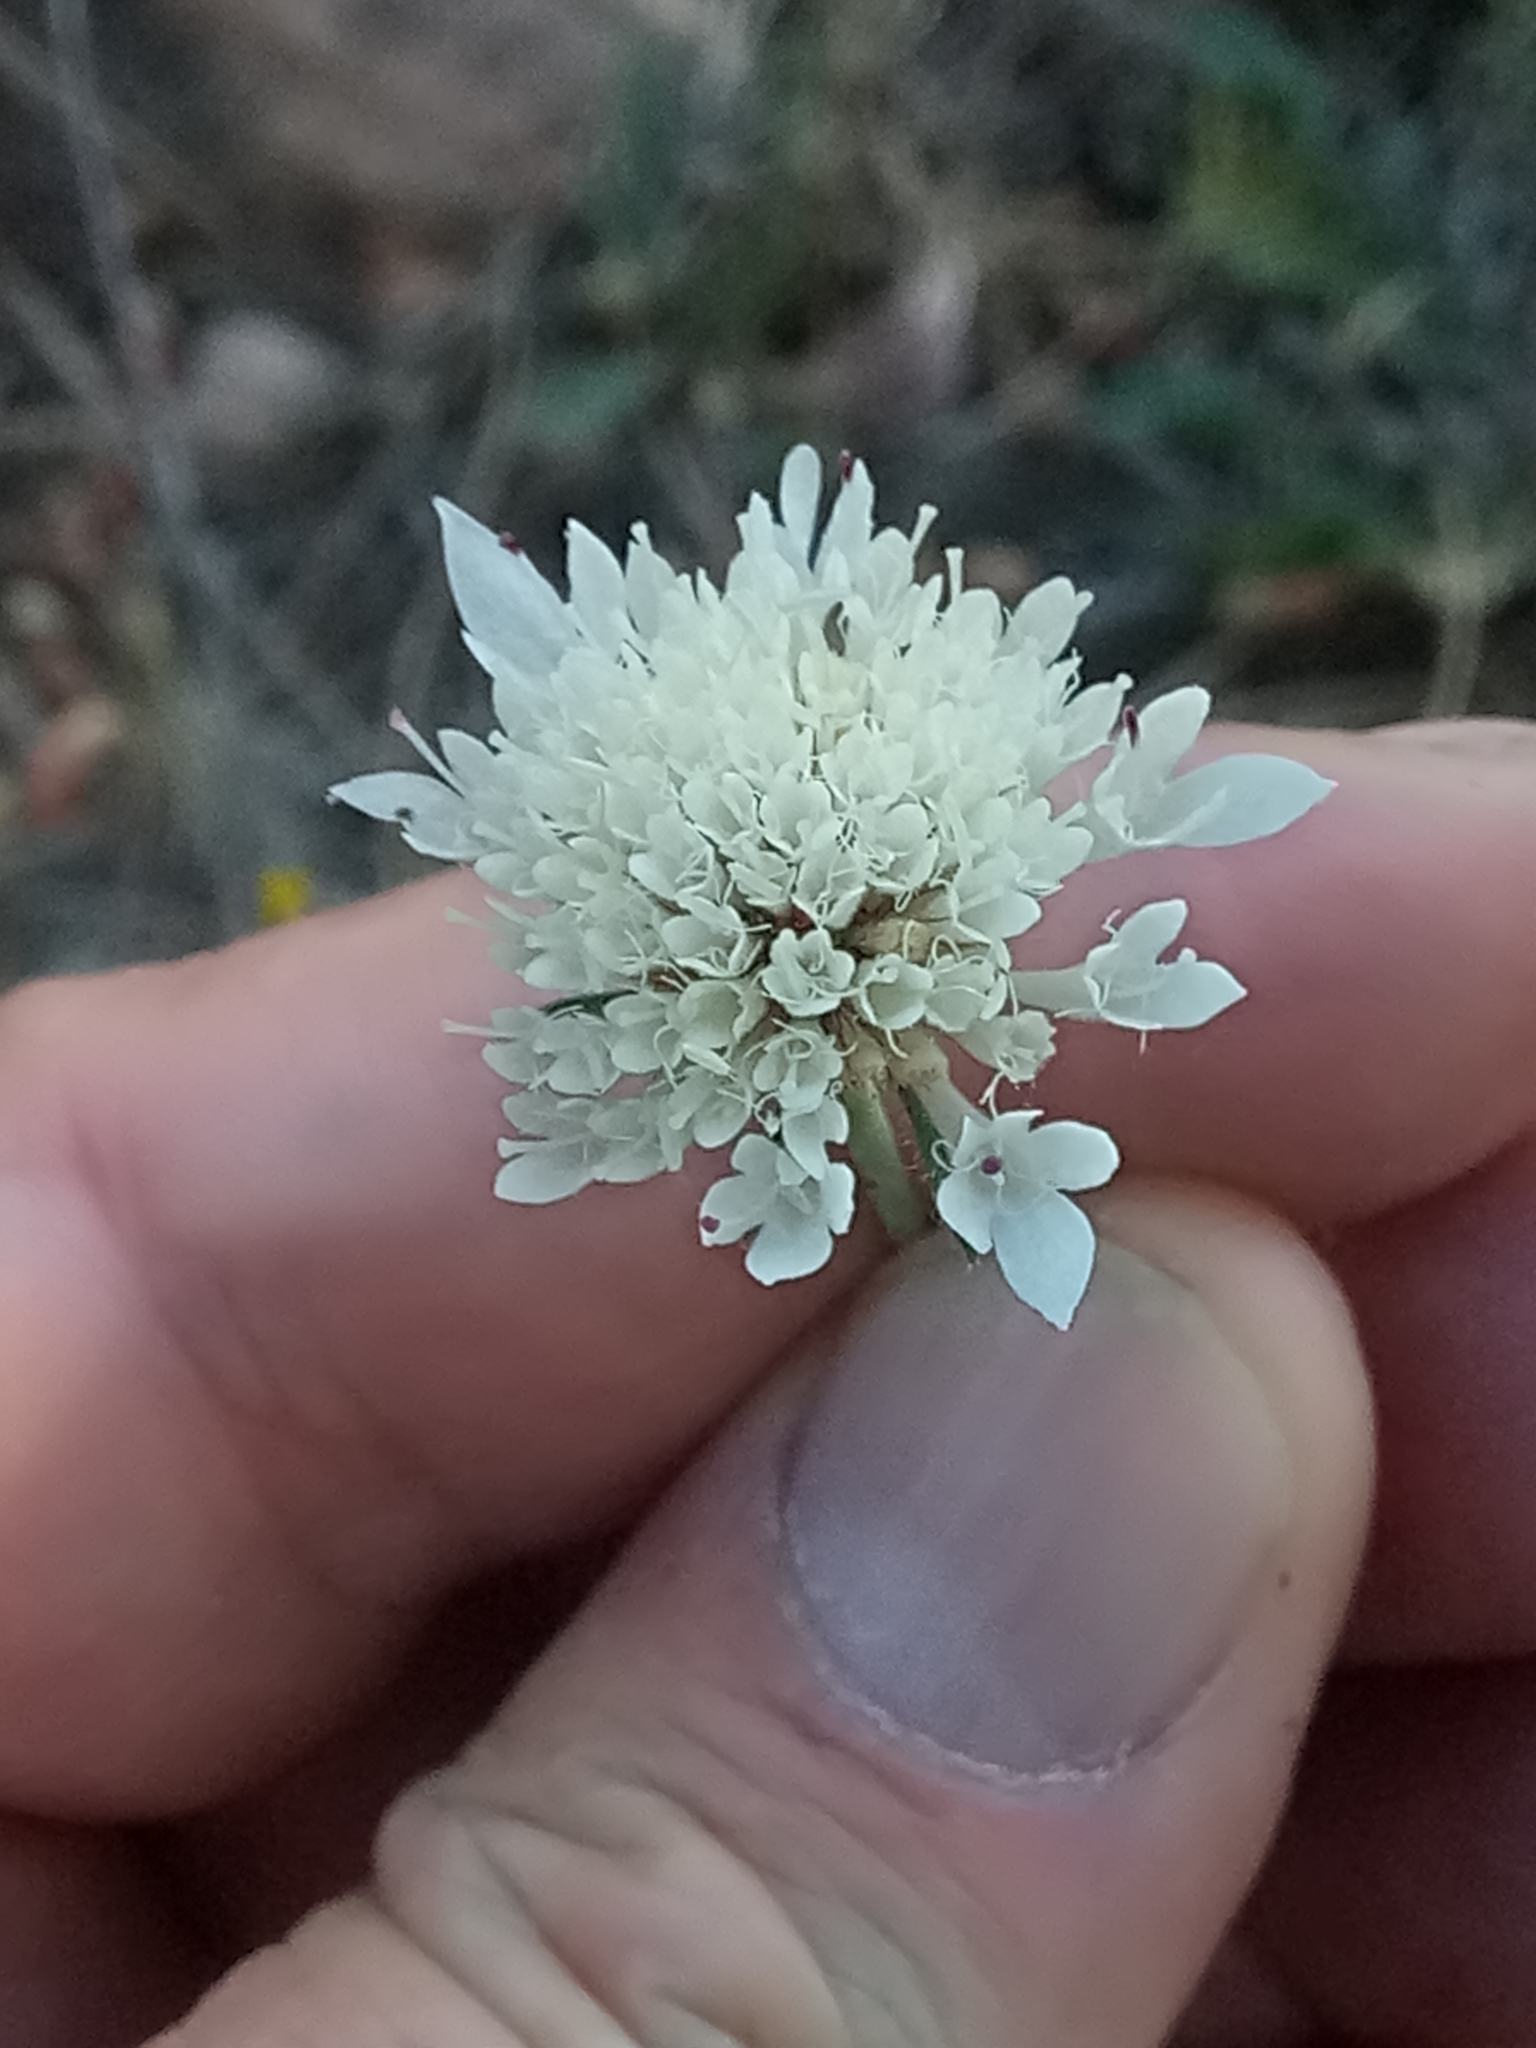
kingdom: Plantae
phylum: Tracheophyta
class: Magnoliopsida
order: Dipsacales
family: Caprifoliaceae
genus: Sixalix
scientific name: Sixalix maritima
